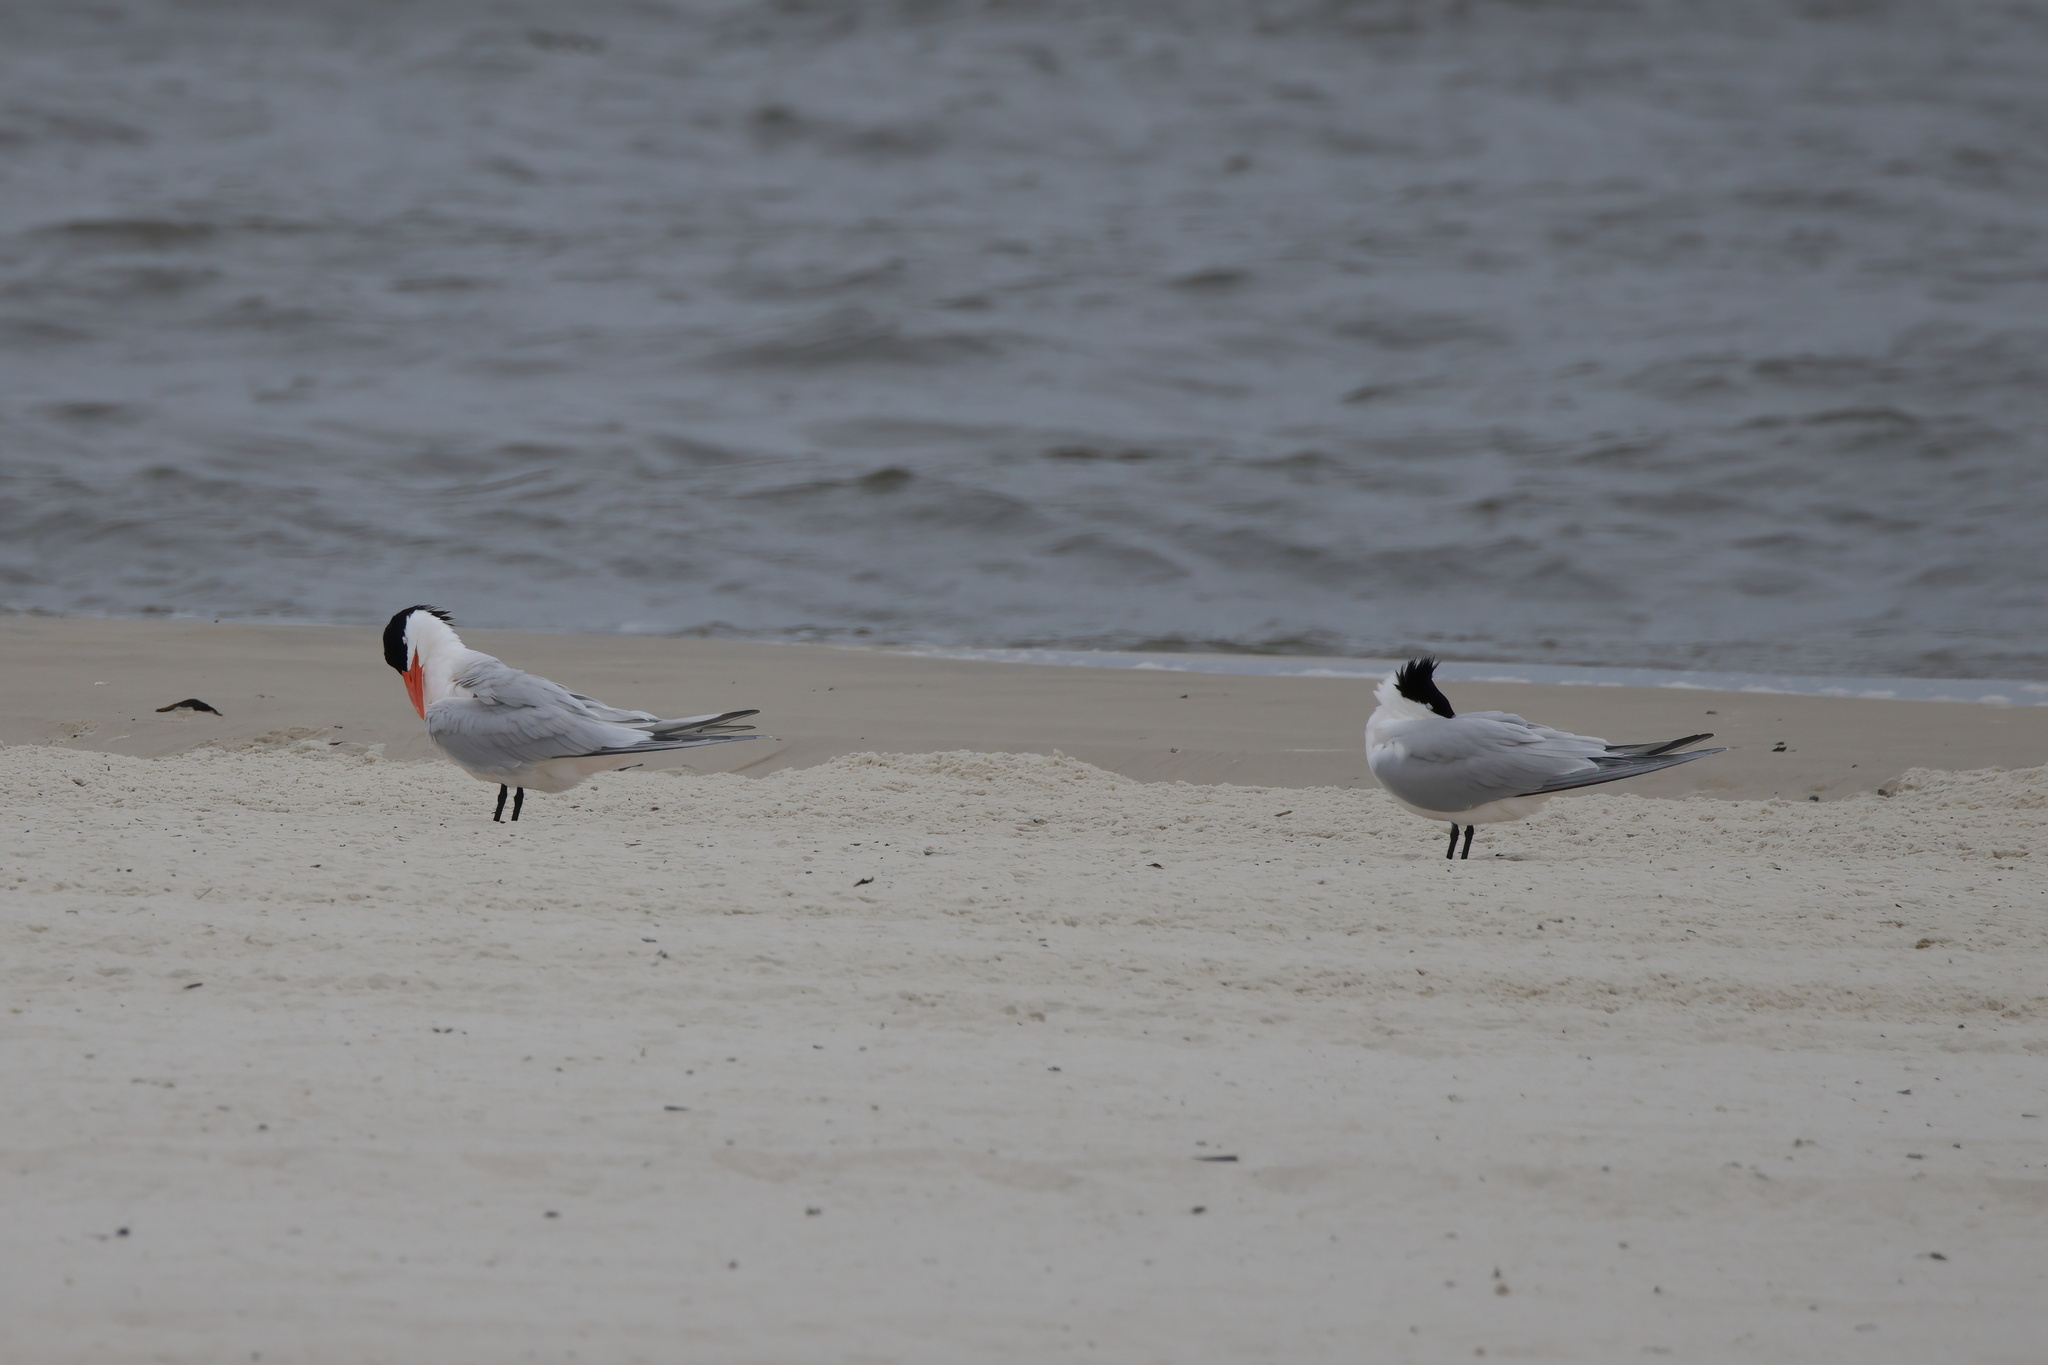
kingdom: Animalia
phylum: Chordata
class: Aves
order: Charadriiformes
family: Laridae
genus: Thalasseus
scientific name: Thalasseus maximus
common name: Royal tern
